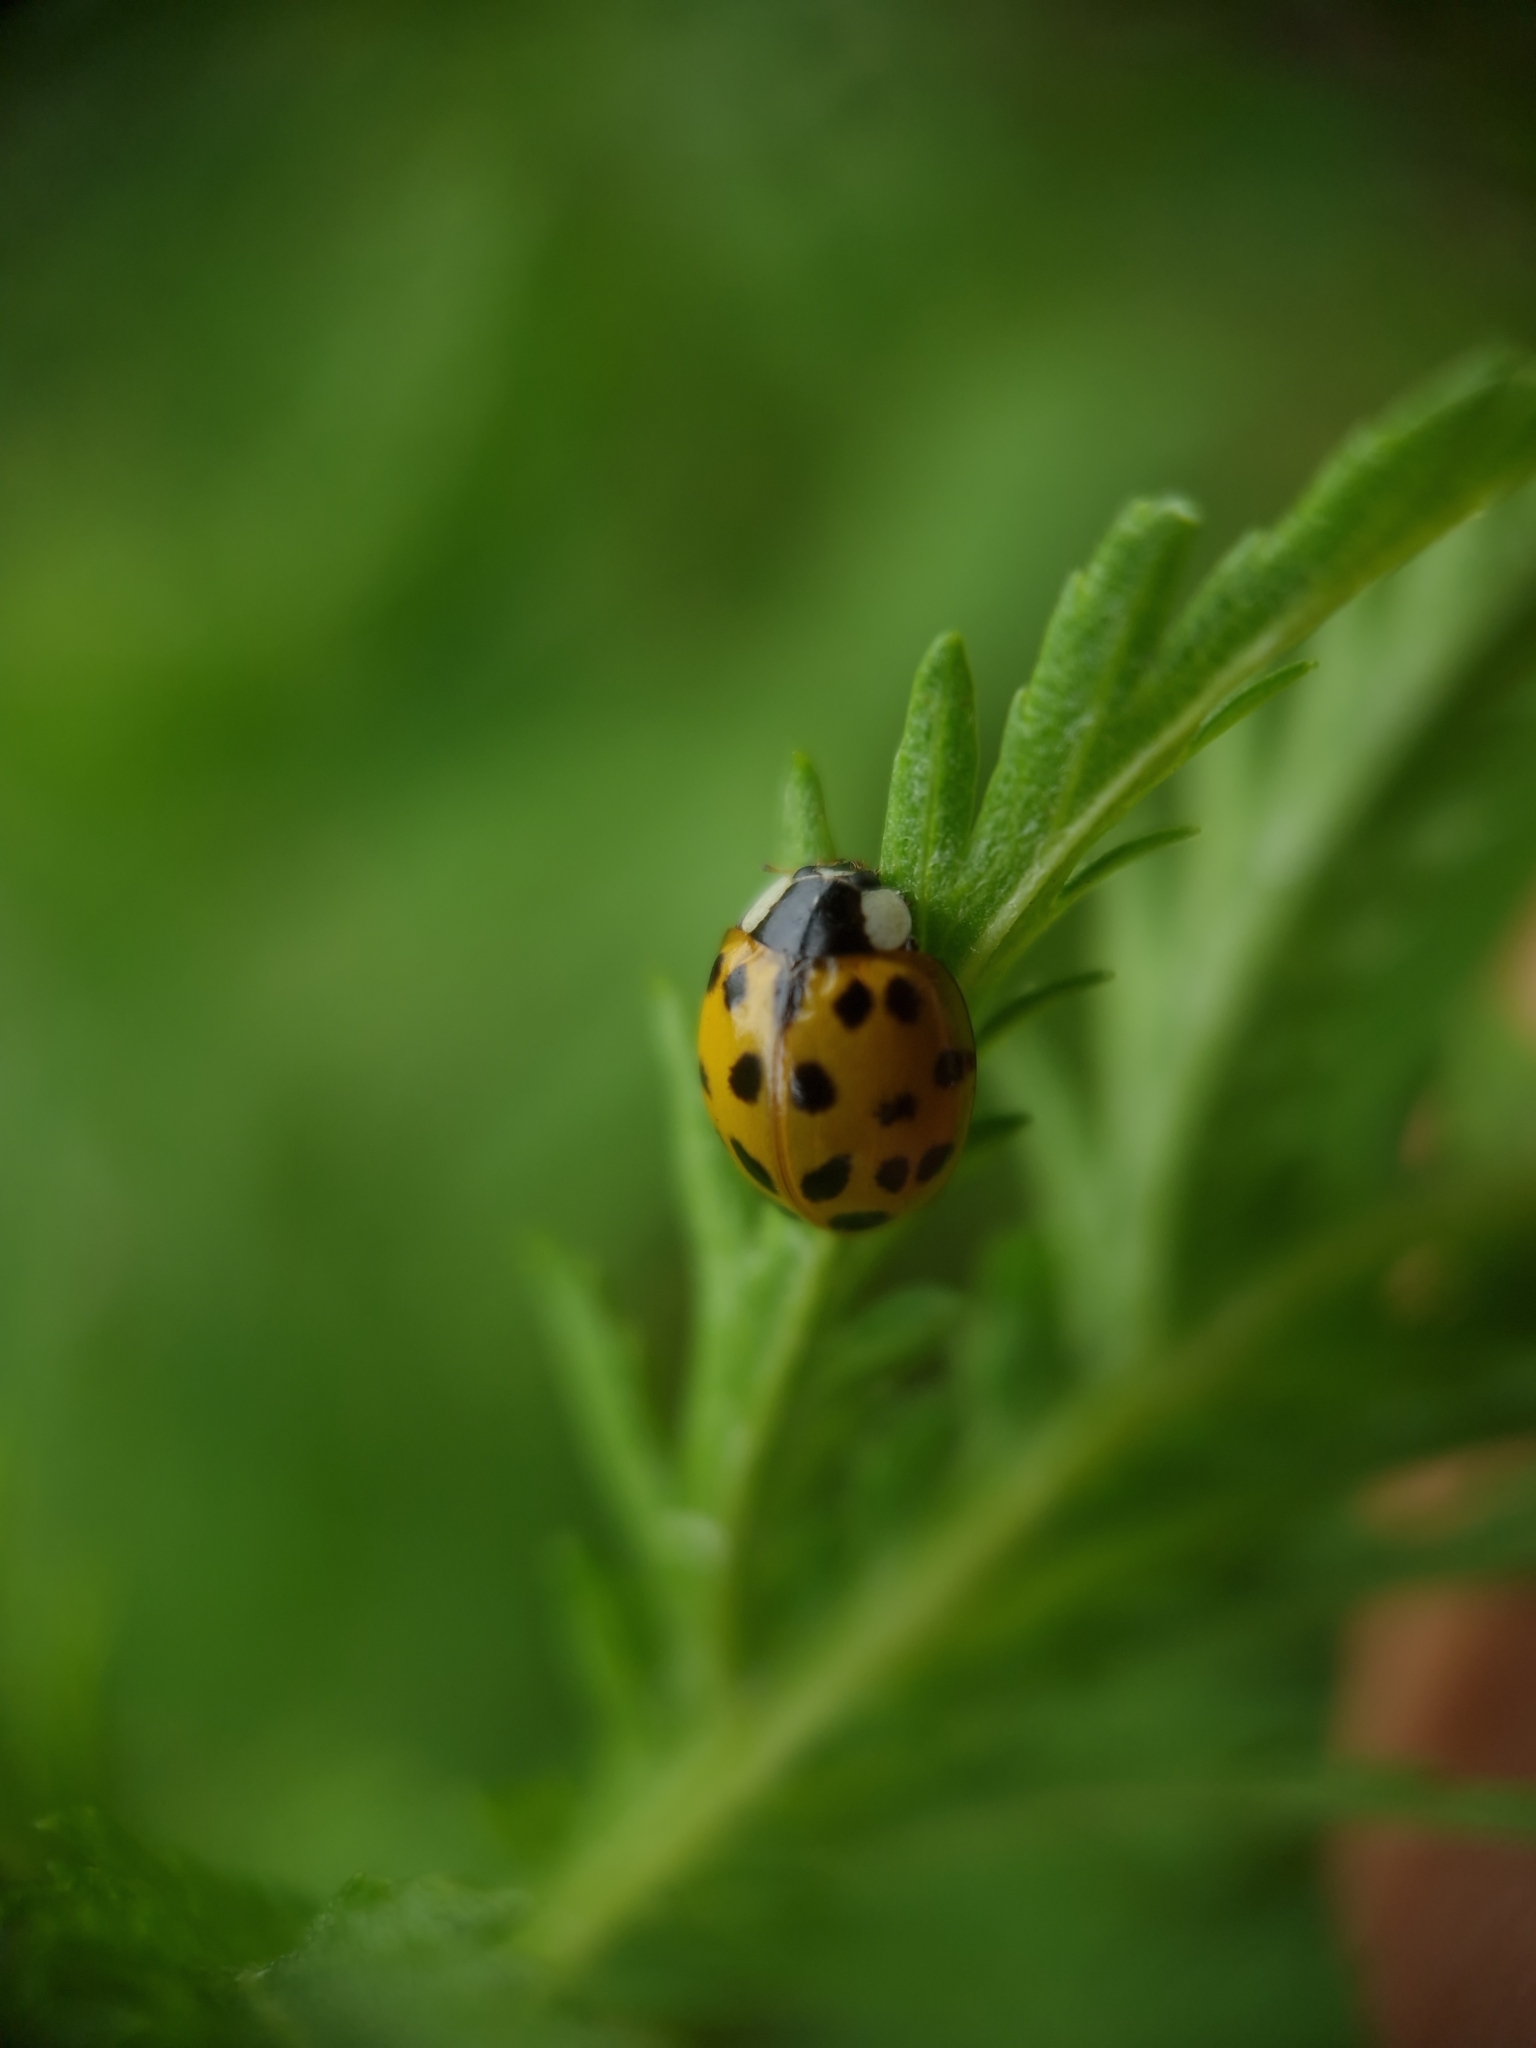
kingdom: Animalia
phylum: Arthropoda
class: Insecta
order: Coleoptera
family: Coccinellidae
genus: Harmonia
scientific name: Harmonia axyridis
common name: Harlequin ladybird
